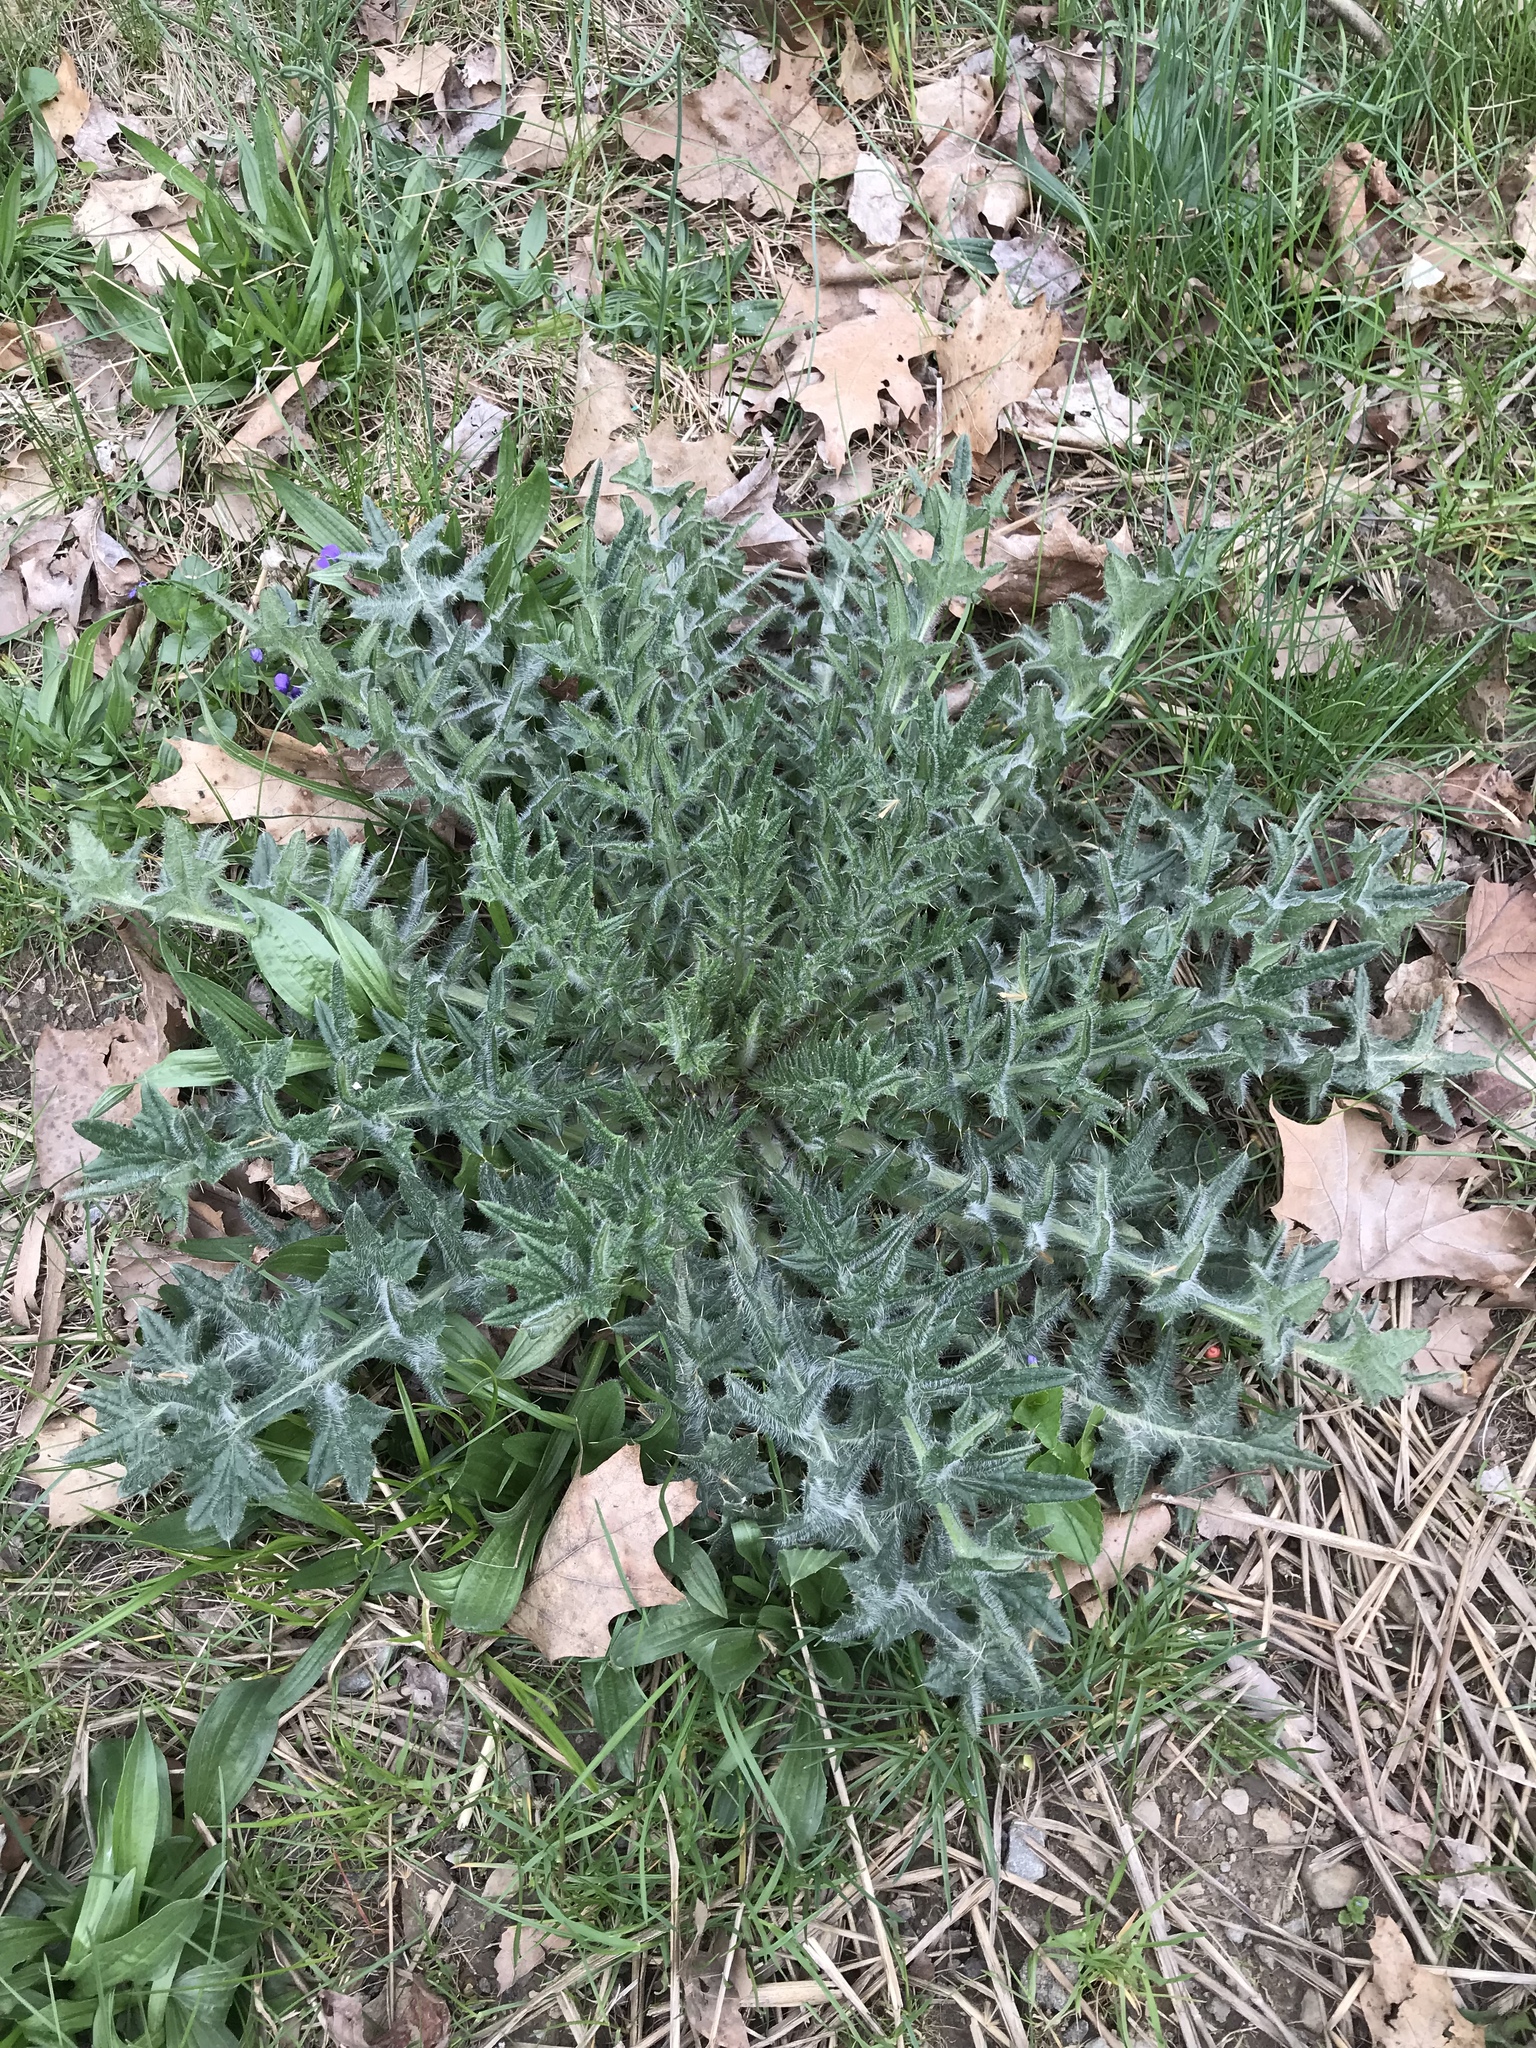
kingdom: Plantae
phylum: Tracheophyta
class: Magnoliopsida
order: Asterales
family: Asteraceae
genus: Cirsium
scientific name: Cirsium vulgare
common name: Bull thistle
